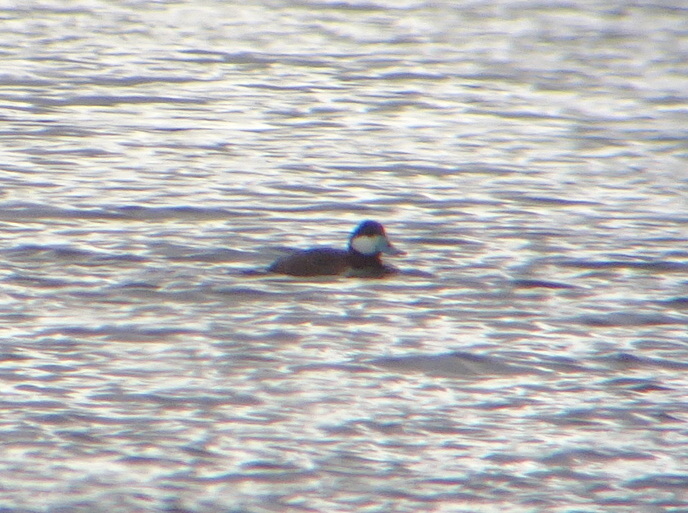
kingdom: Animalia
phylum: Chordata
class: Aves
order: Anseriformes
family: Anatidae
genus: Oxyura
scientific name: Oxyura jamaicensis
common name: Ruddy duck
